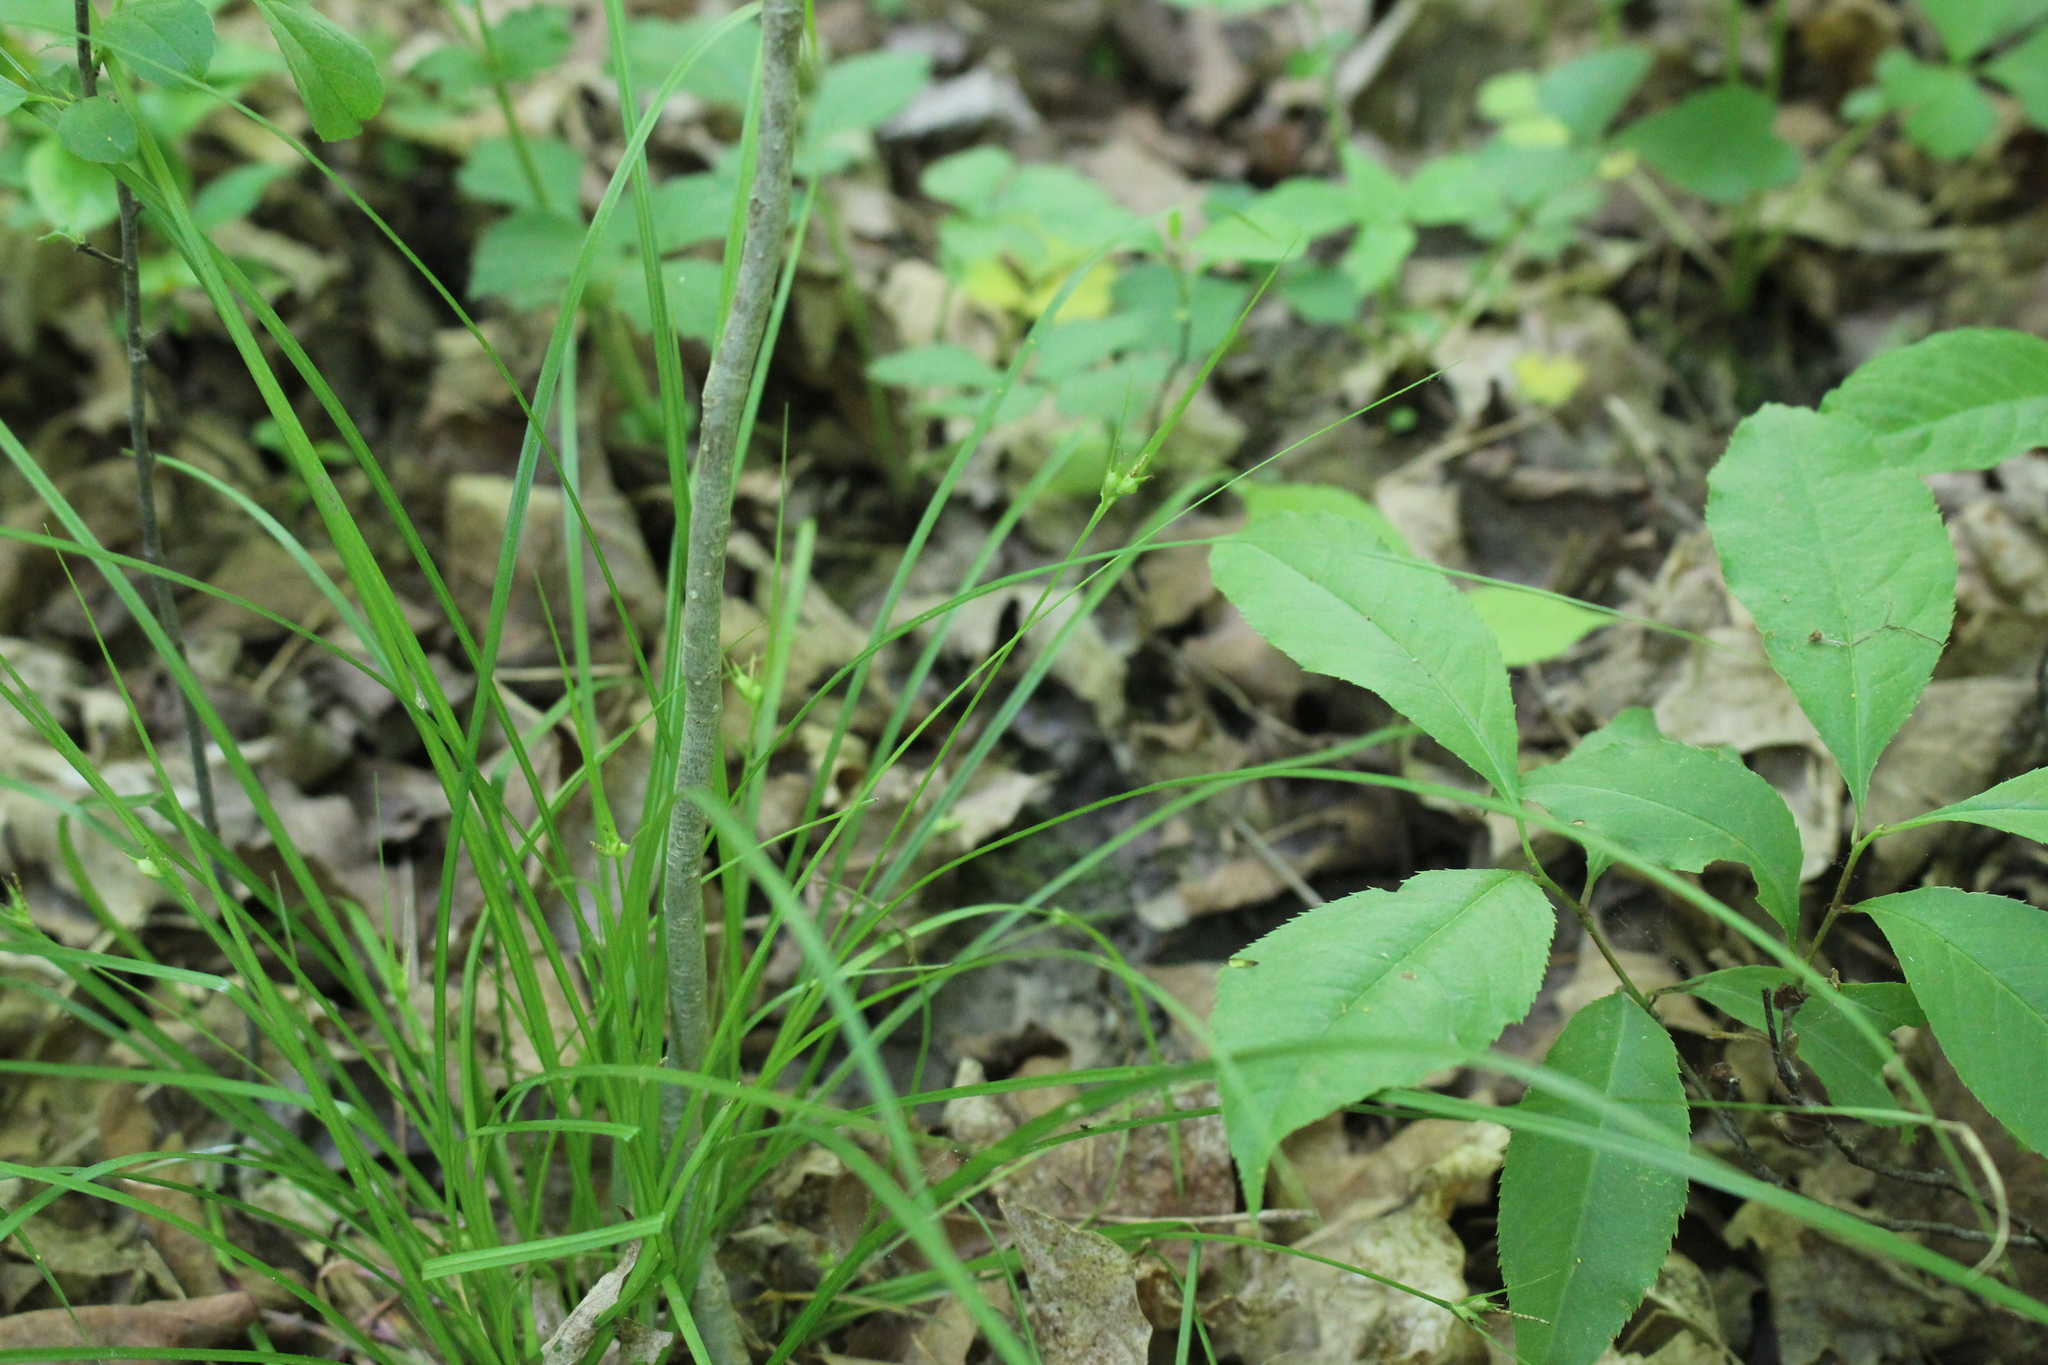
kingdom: Plantae
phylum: Tracheophyta
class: Liliopsida
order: Poales
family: Cyperaceae
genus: Carex
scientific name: Carex jamesii
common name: Grass sedge
